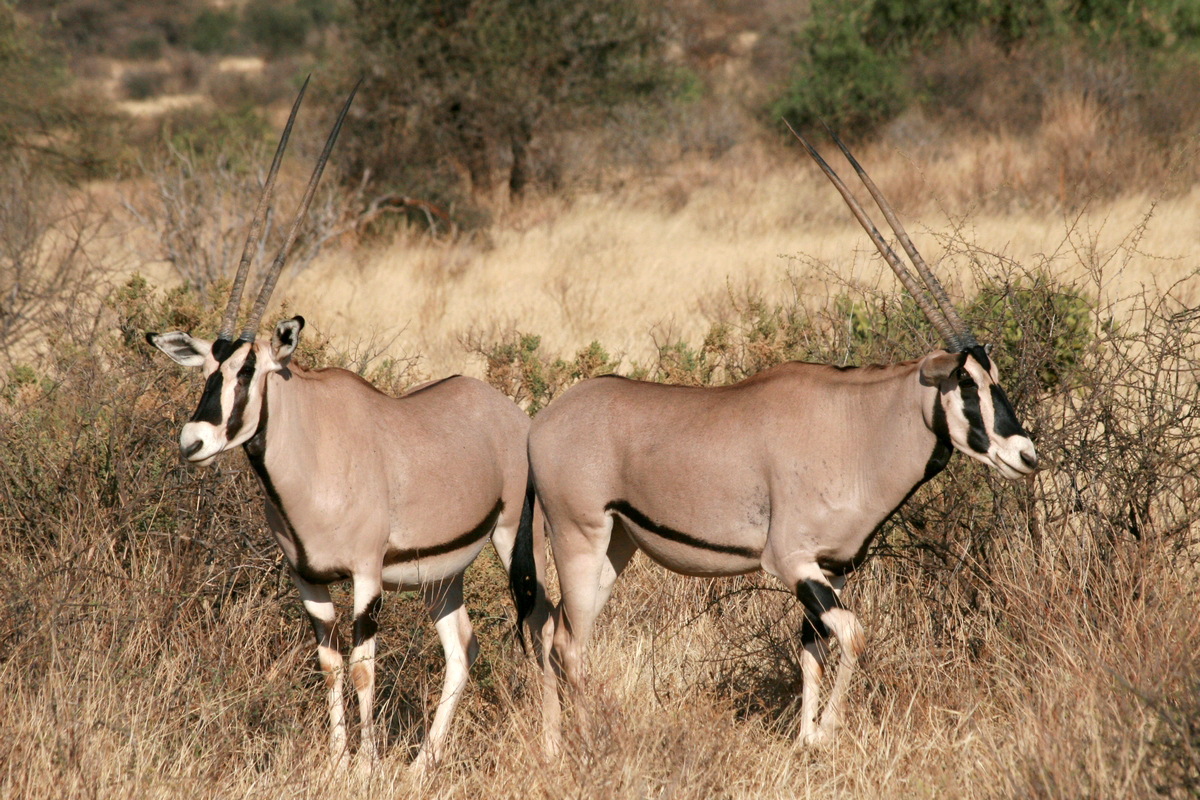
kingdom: Animalia
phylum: Chordata
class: Mammalia
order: Artiodactyla
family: Bovidae
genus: Oryx
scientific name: Oryx beisa
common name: Beisa
